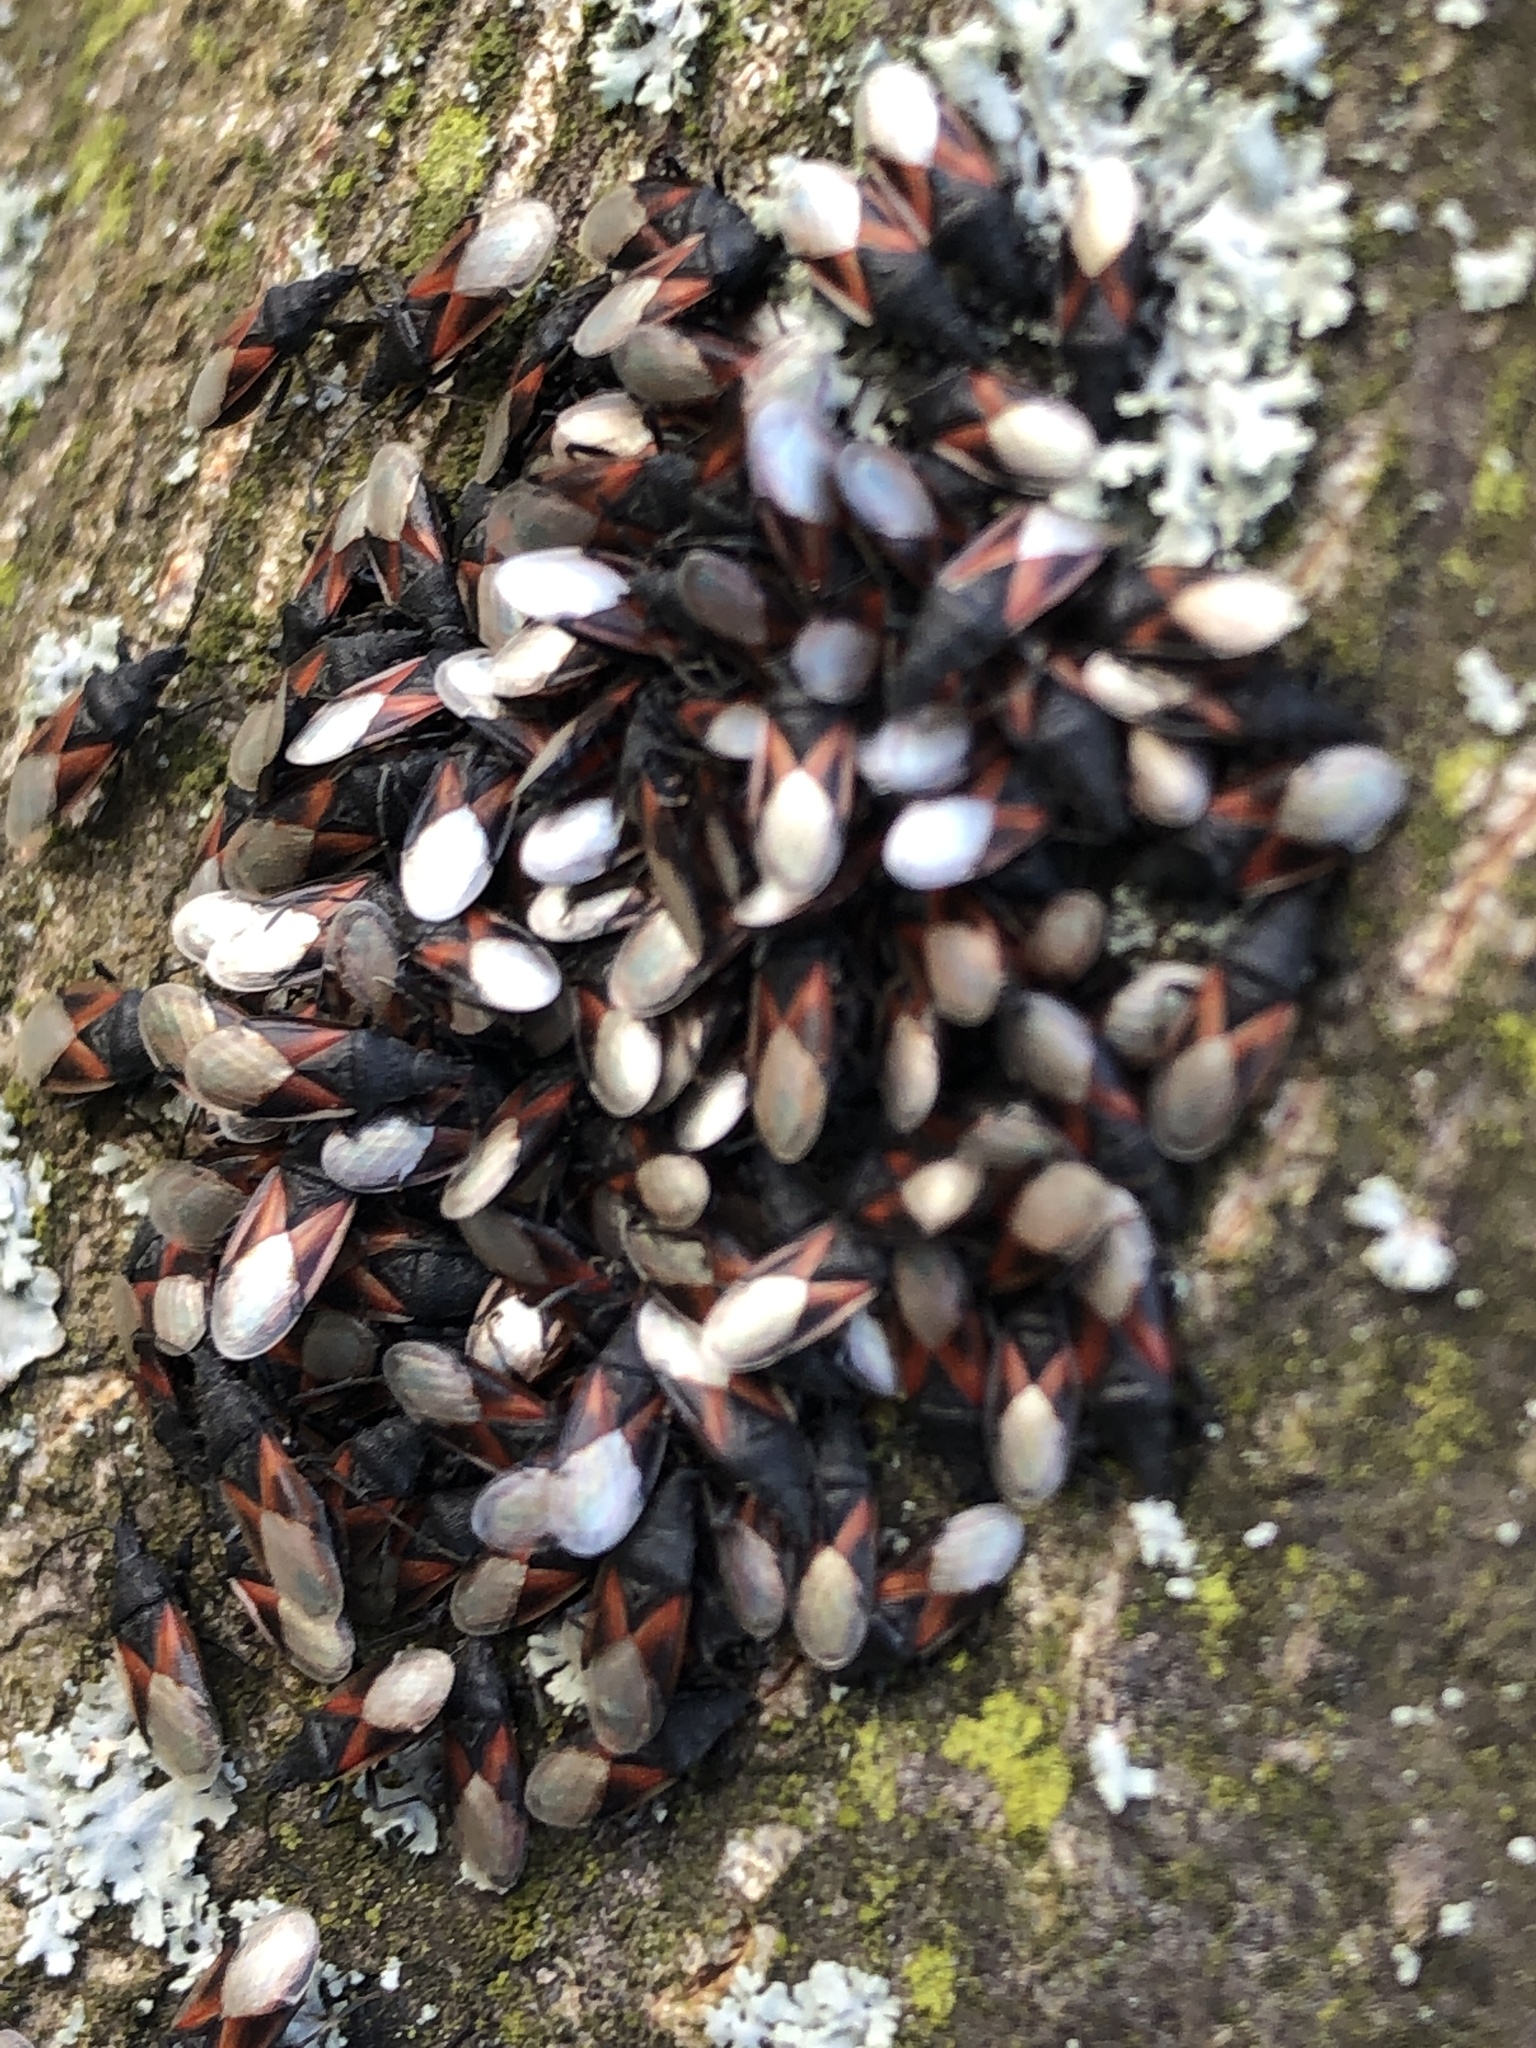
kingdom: Animalia
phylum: Arthropoda
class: Insecta
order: Hemiptera
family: Oxycarenidae
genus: Oxycarenus
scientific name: Oxycarenus lavaterae
